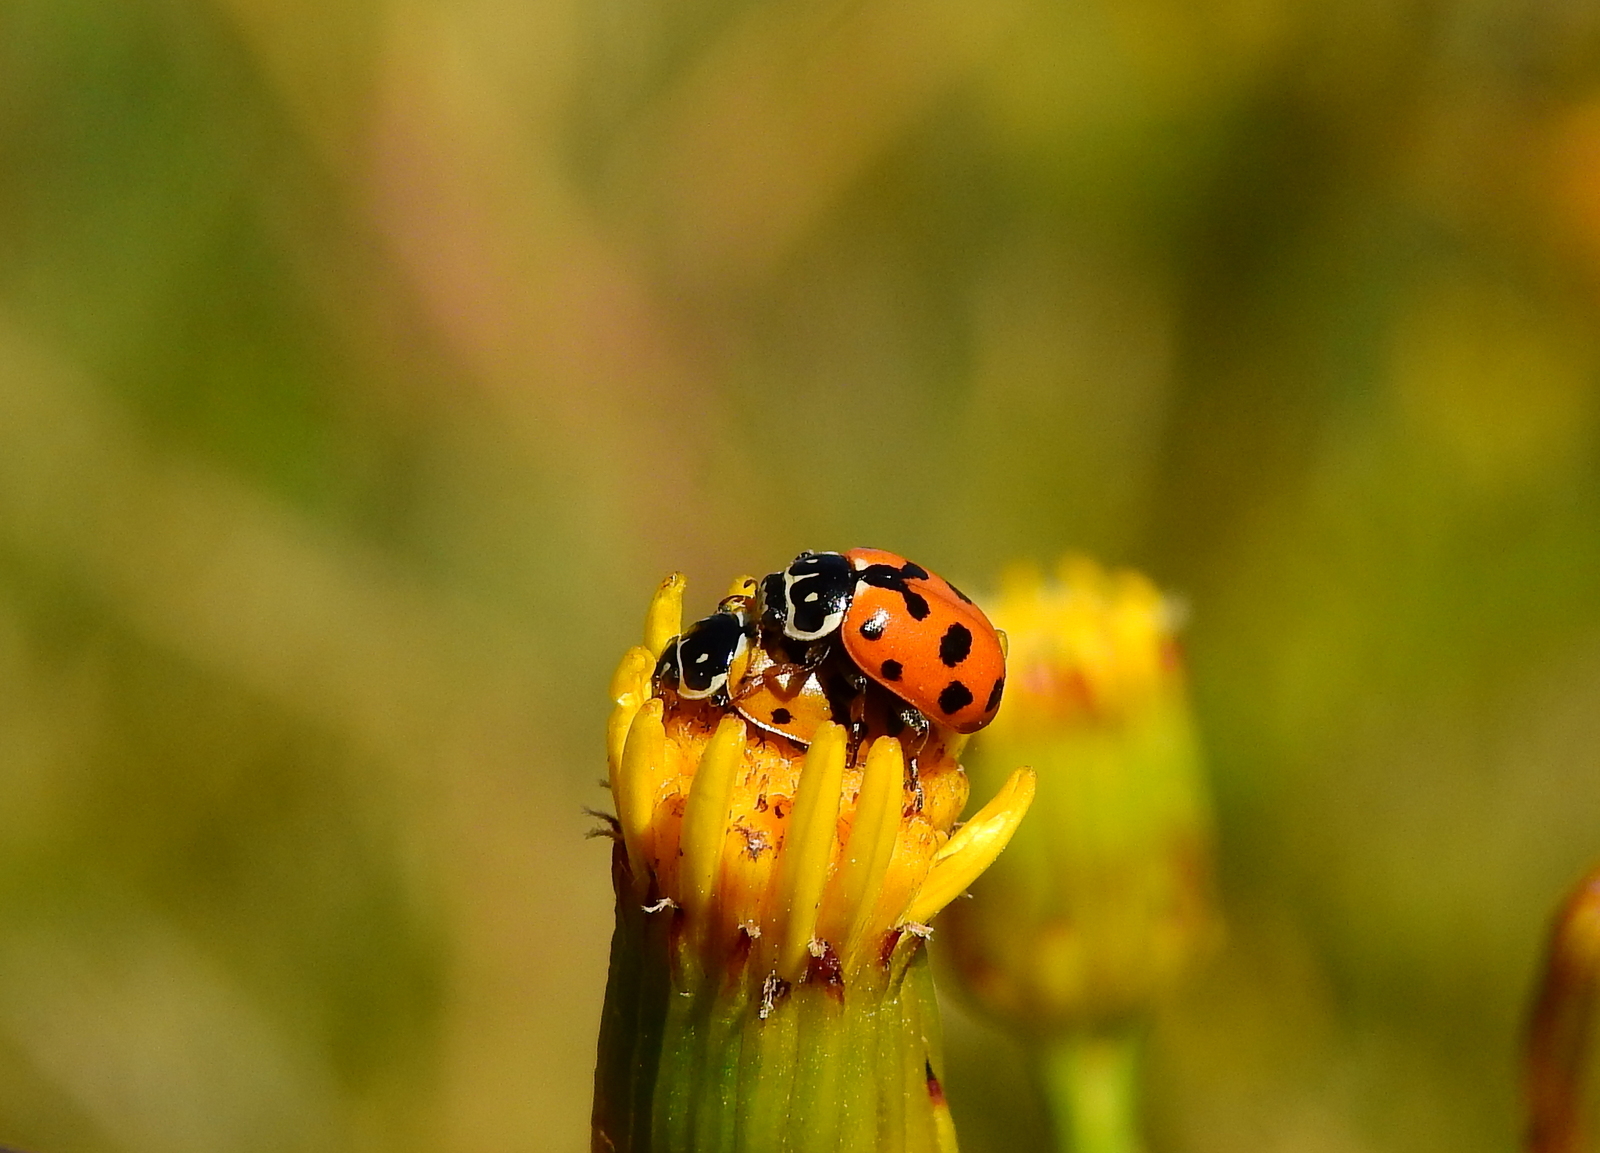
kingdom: Animalia
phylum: Arthropoda
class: Insecta
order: Coleoptera
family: Coccinellidae
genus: Hippodamia
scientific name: Hippodamia variegata
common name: Ladybird beetle
